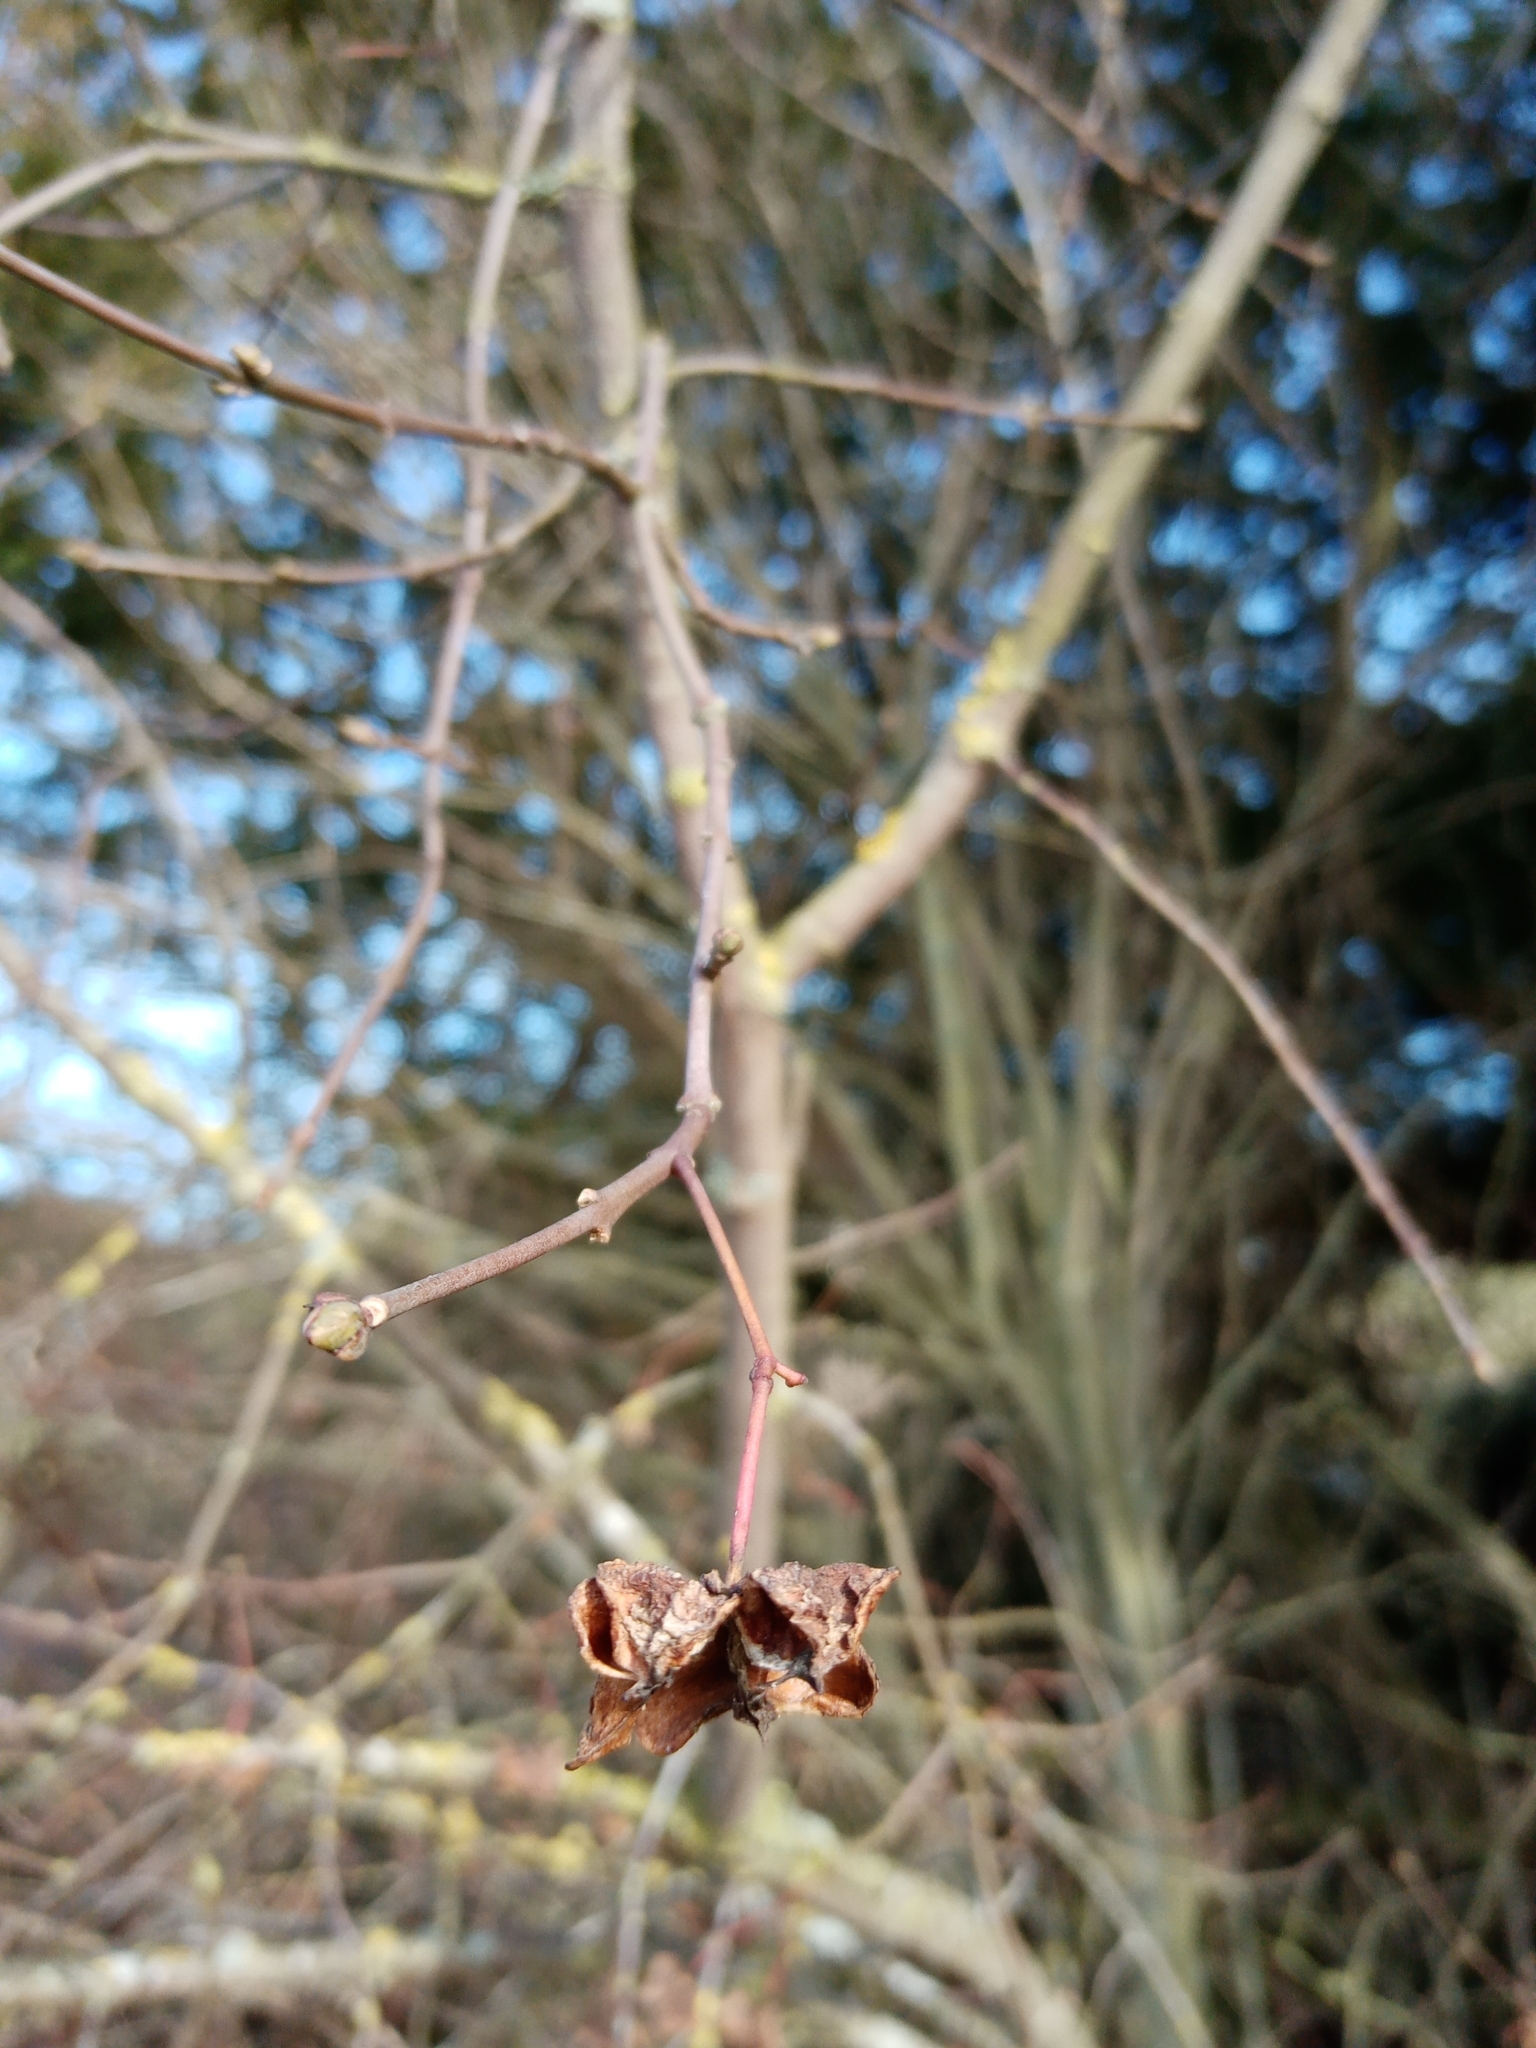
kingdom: Plantae
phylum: Tracheophyta
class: Magnoliopsida
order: Celastrales
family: Celastraceae
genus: Euonymus
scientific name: Euonymus europaeus
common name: Spindle
